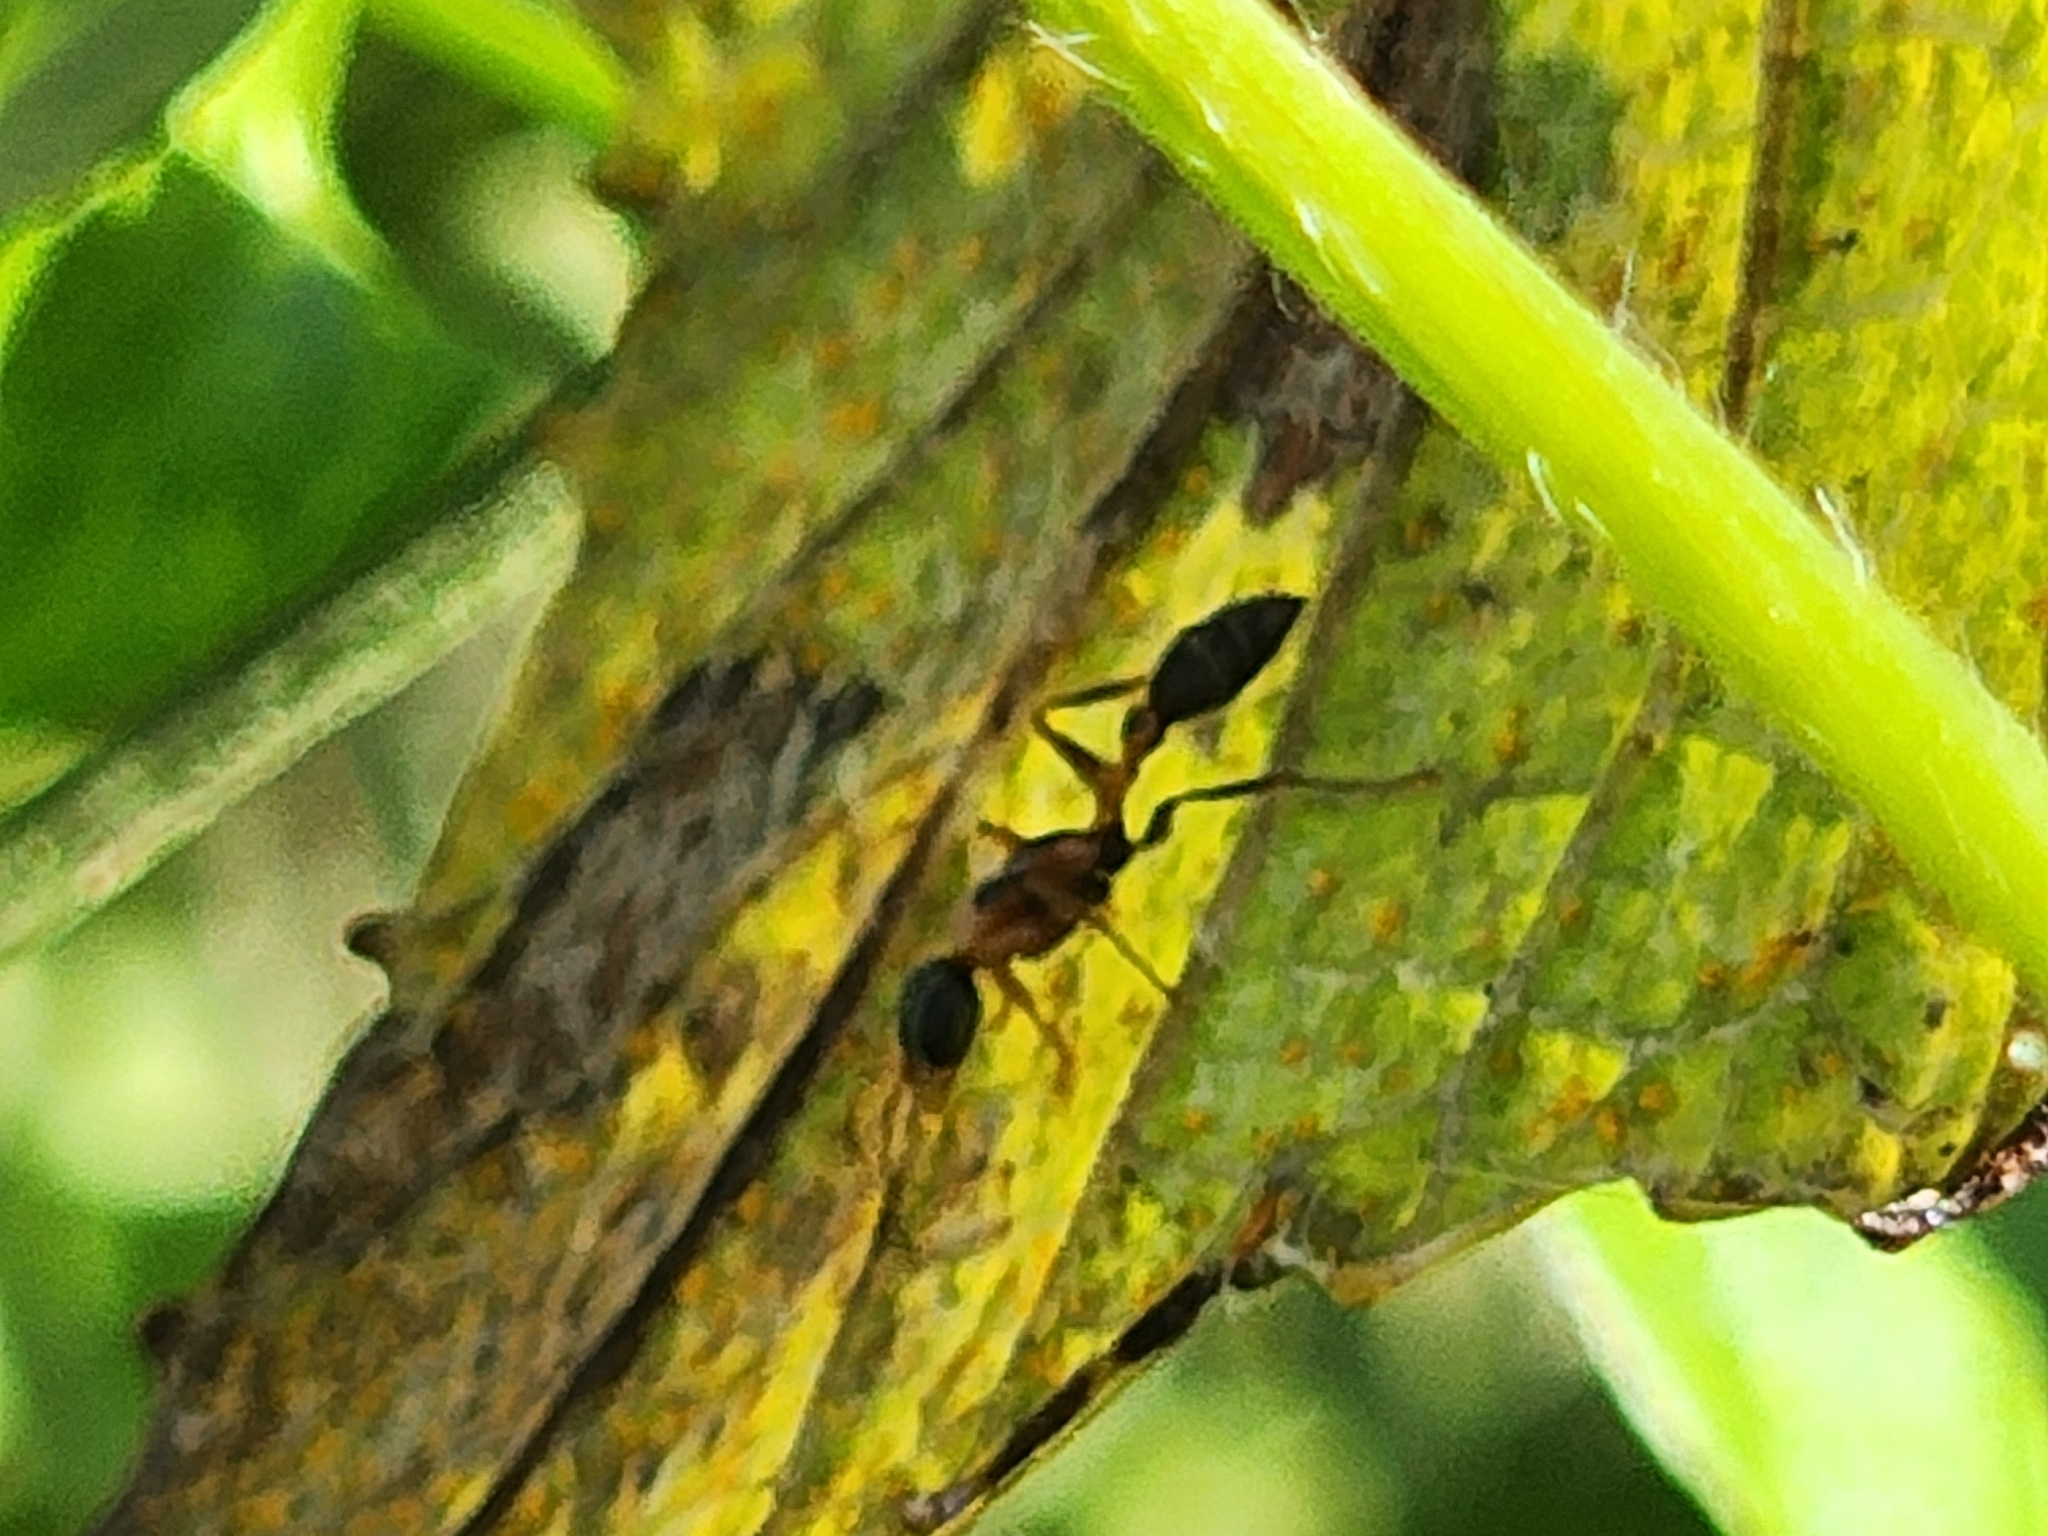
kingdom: Animalia
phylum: Arthropoda
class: Insecta
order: Hymenoptera
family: Formicidae
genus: Pseudomyrmex
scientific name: Pseudomyrmex gracilis
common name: Graceful twig ant
